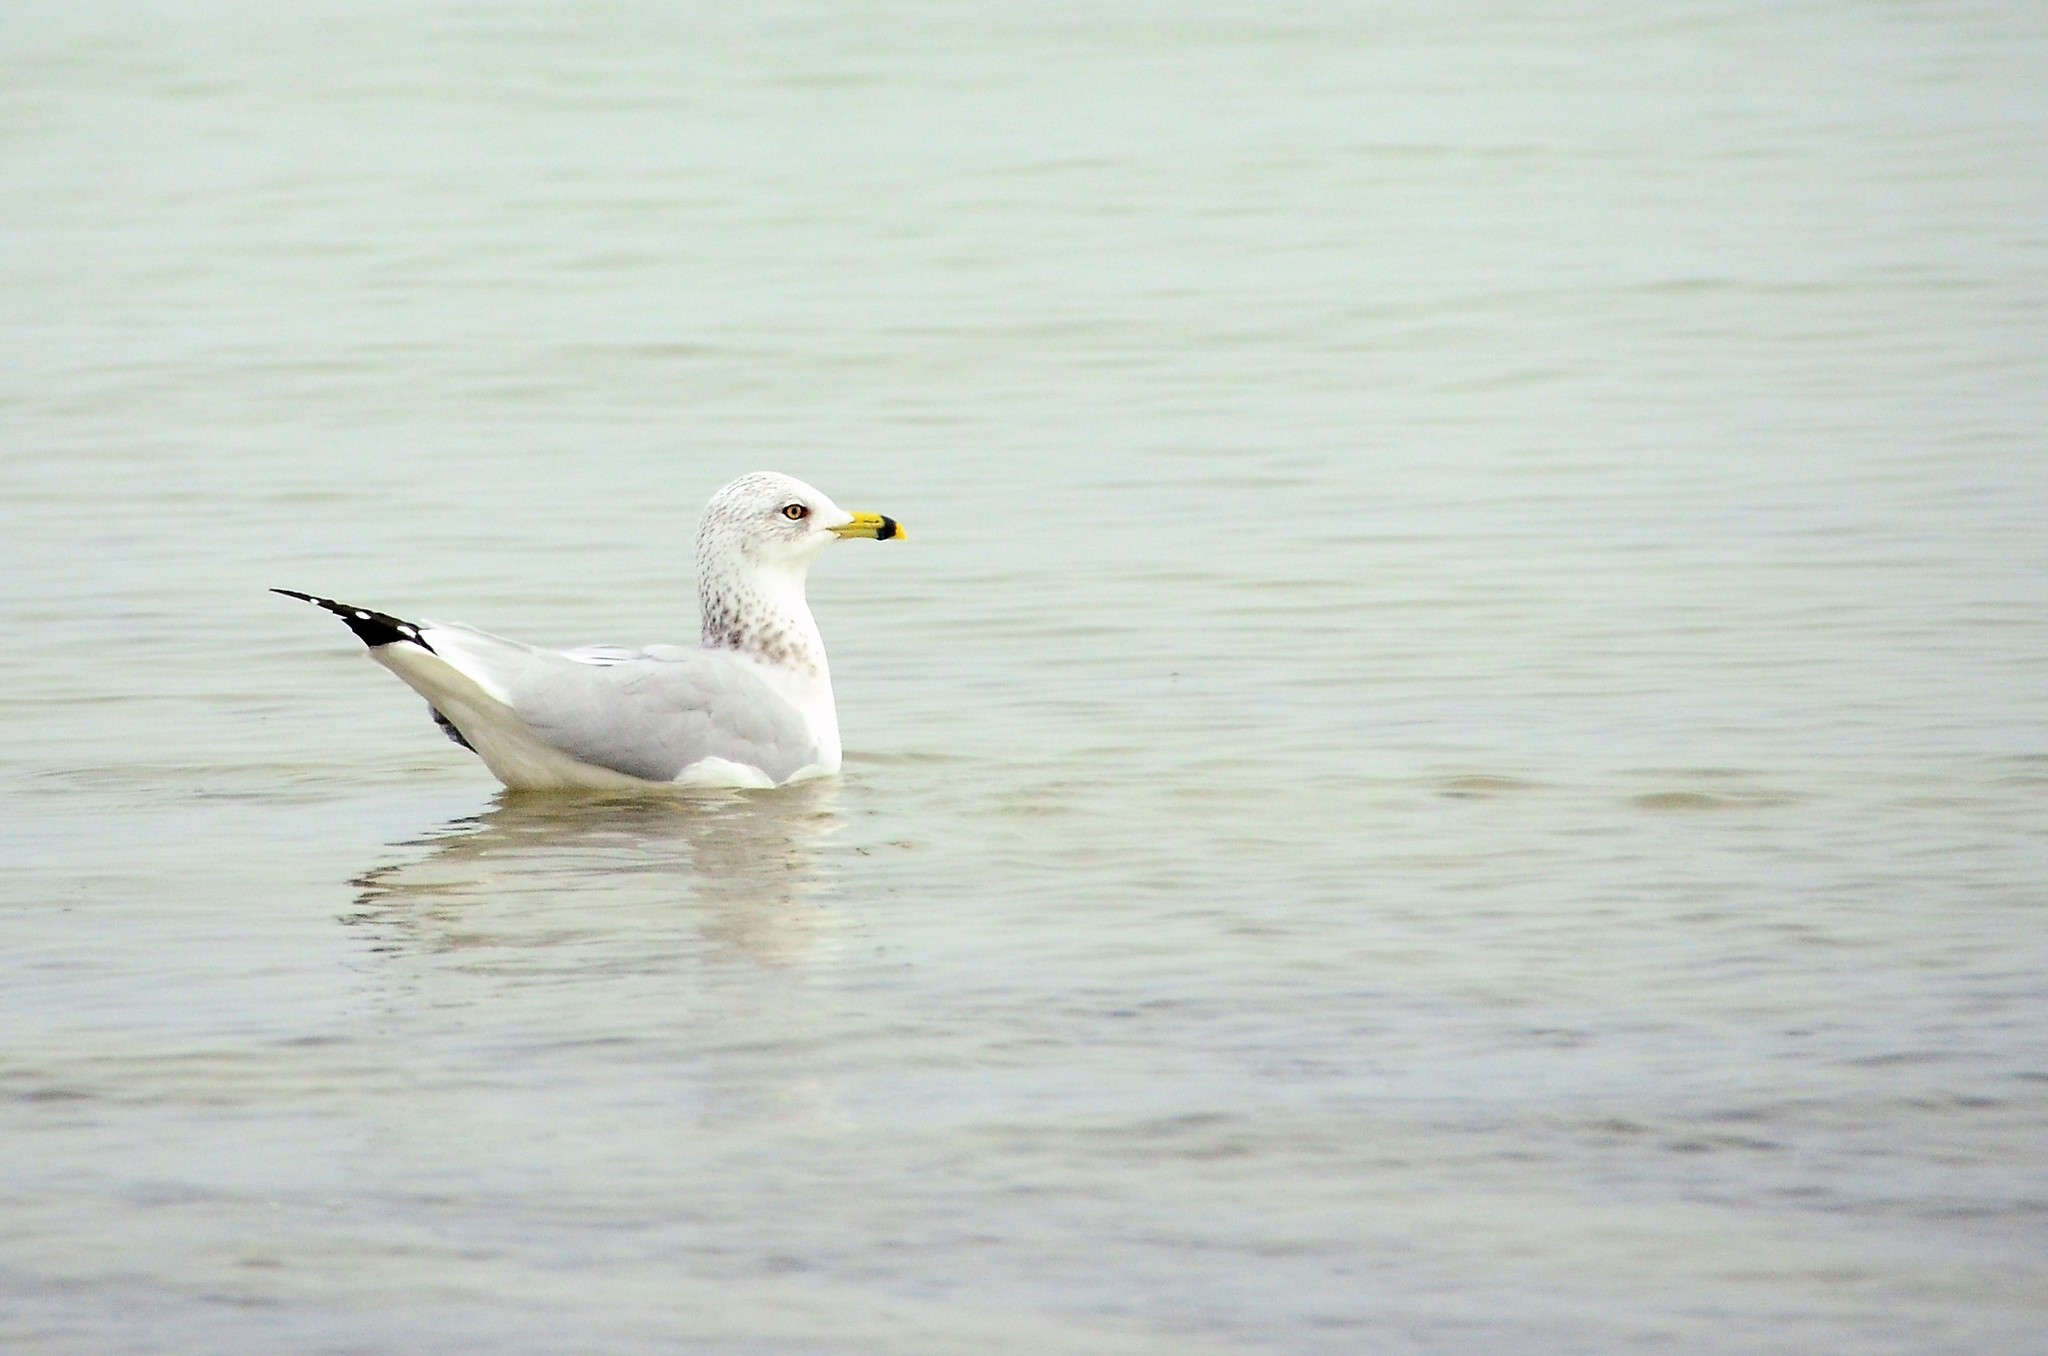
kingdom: Animalia
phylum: Chordata
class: Aves
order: Charadriiformes
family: Laridae
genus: Larus
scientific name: Larus delawarensis
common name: Ring-billed gull
